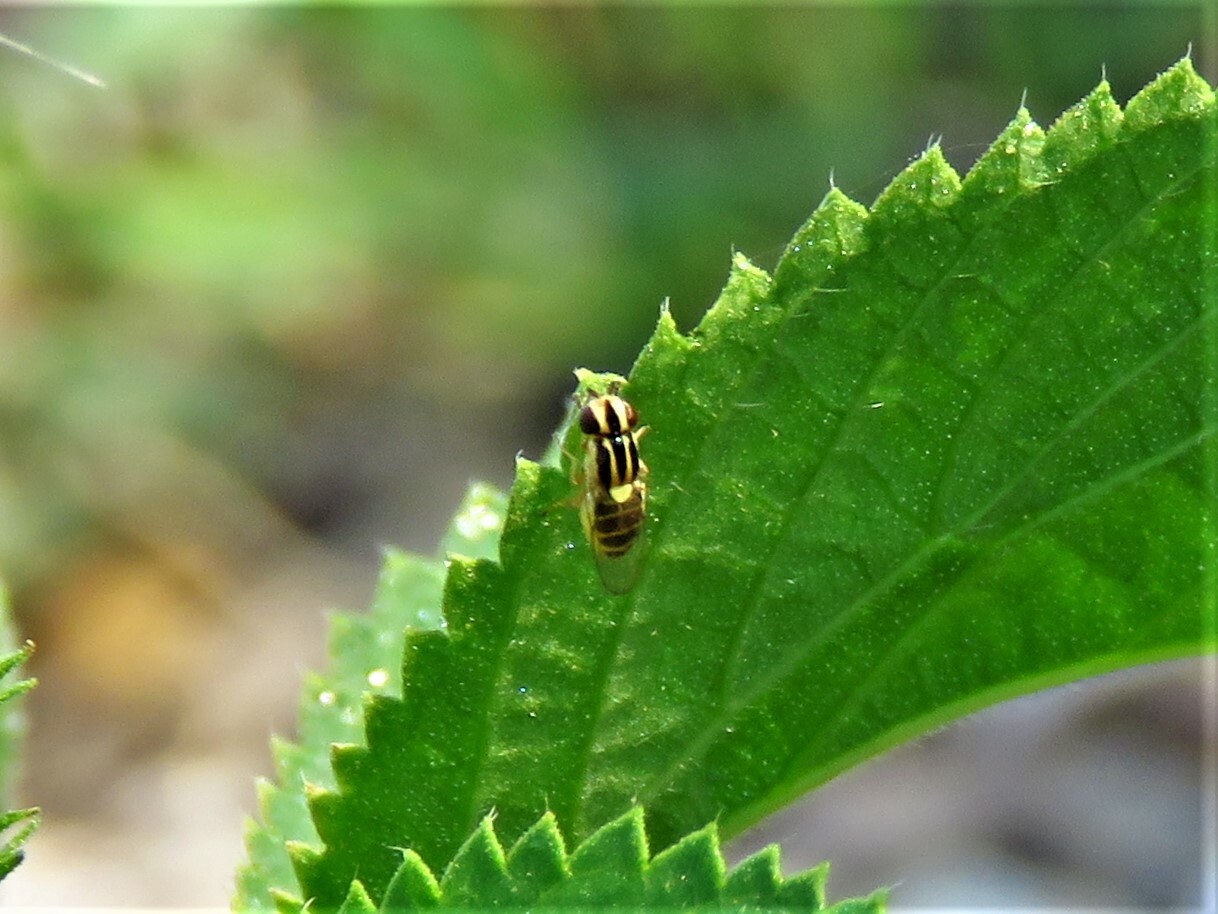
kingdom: Animalia
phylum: Arthropoda
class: Insecta
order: Diptera
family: Chloropidae
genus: Thaumatomyia
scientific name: Thaumatomyia glabra
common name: Chloropid fly
